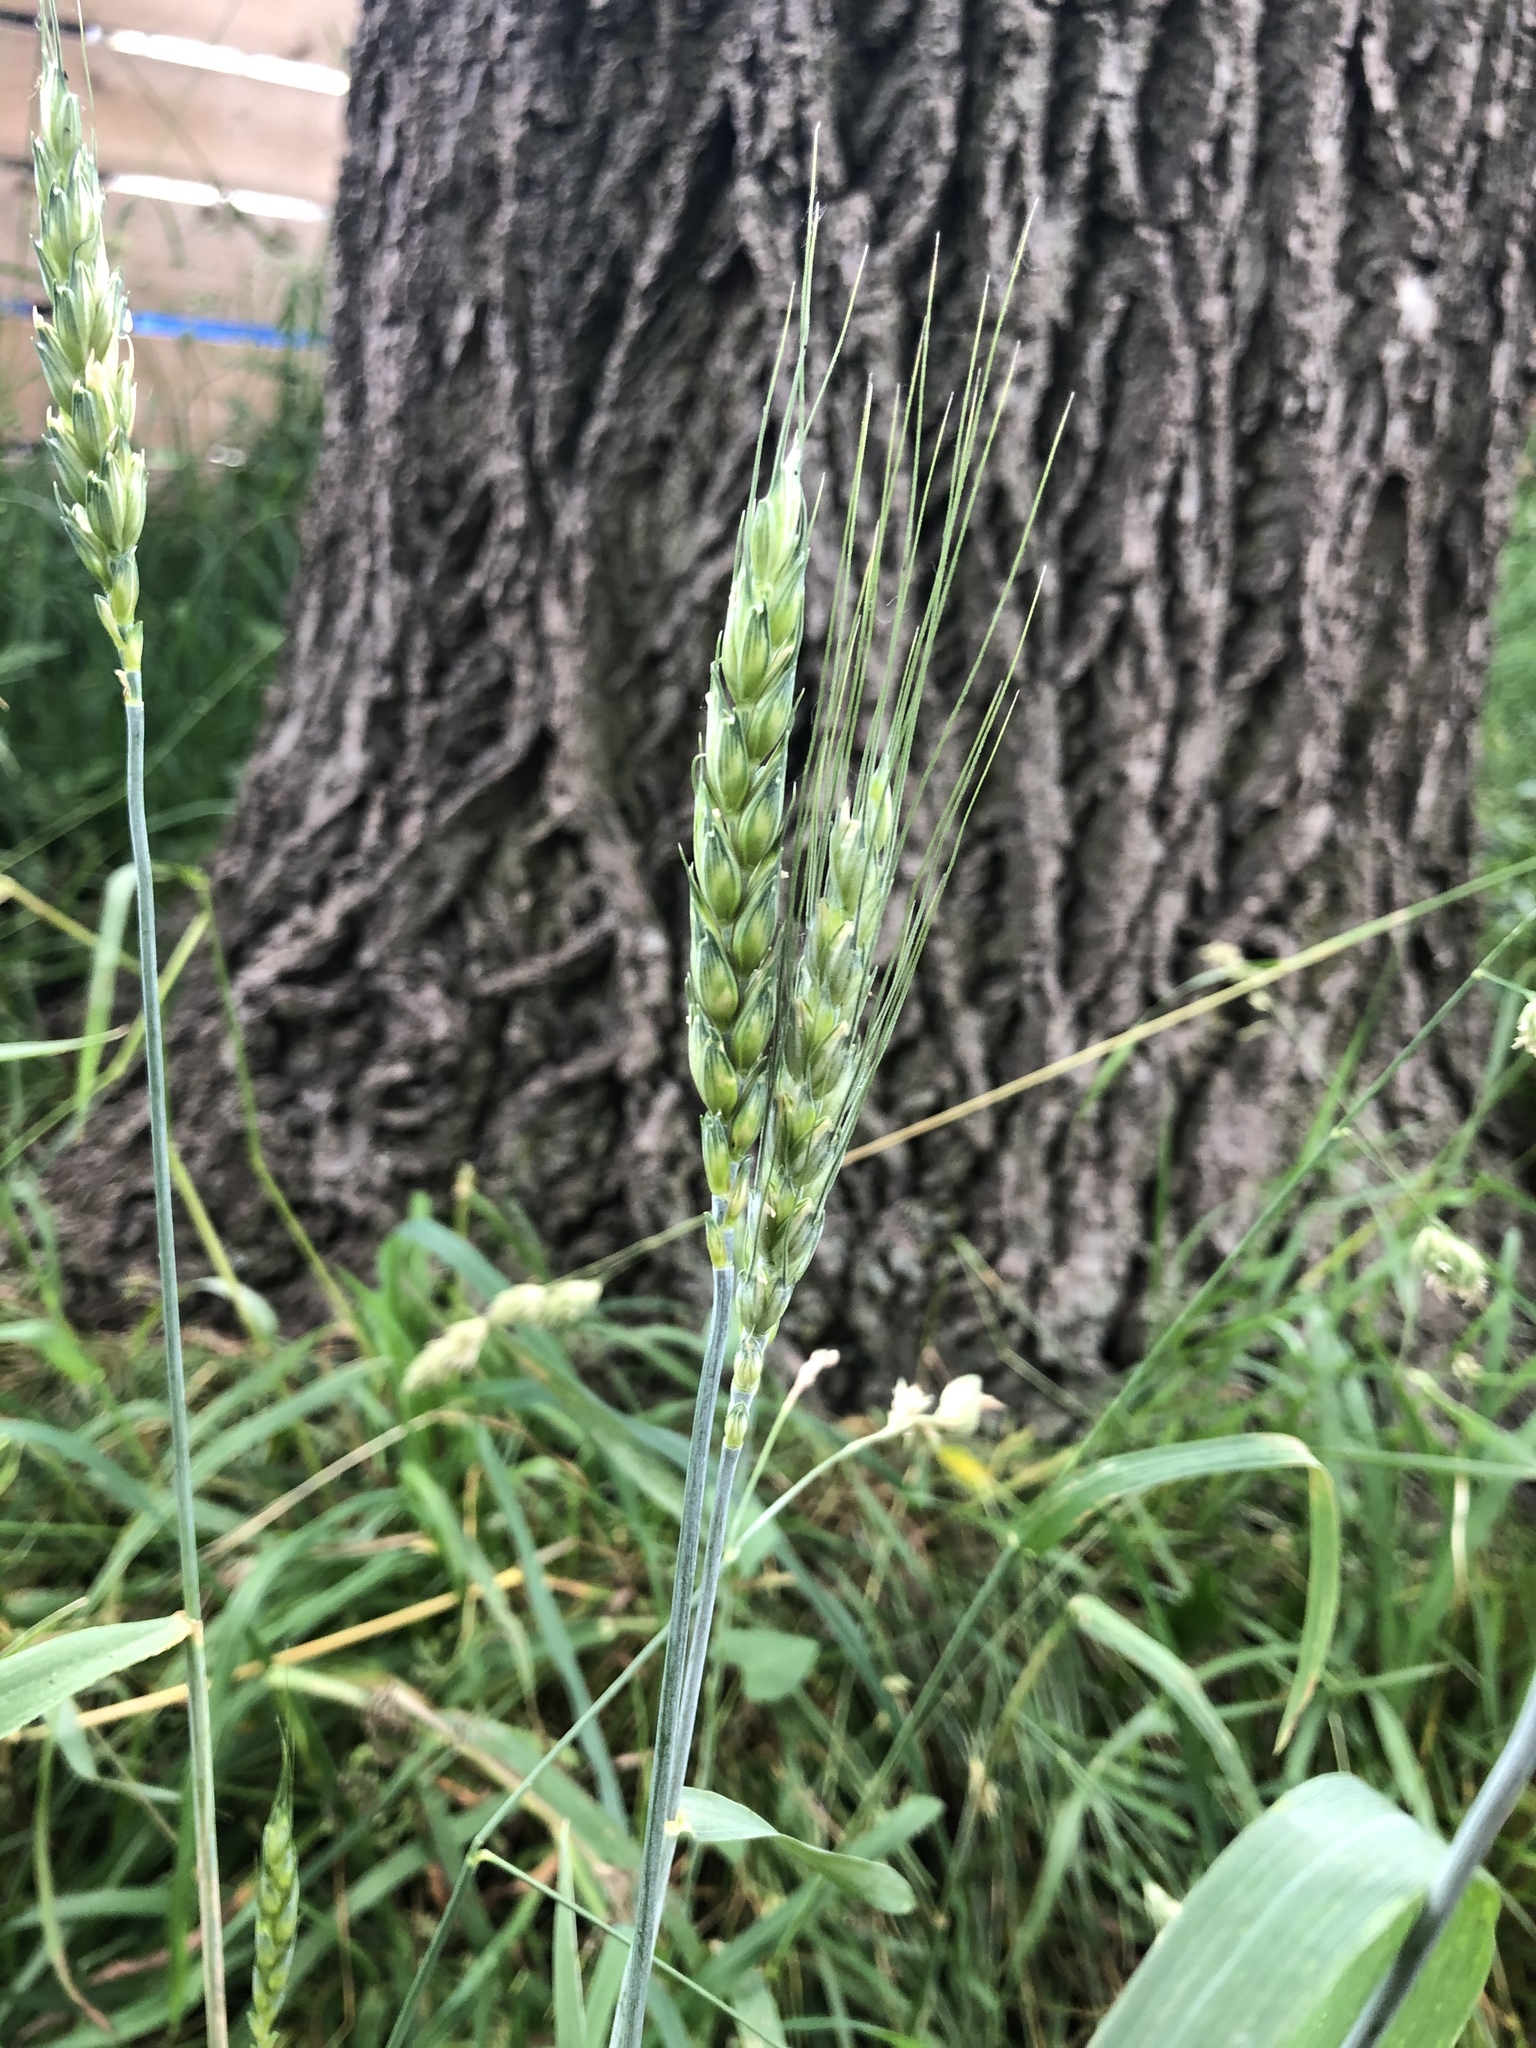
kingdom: Plantae
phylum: Tracheophyta
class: Liliopsida
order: Poales
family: Poaceae
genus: Triticum
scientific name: Triticum aestivum
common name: Common wheat
